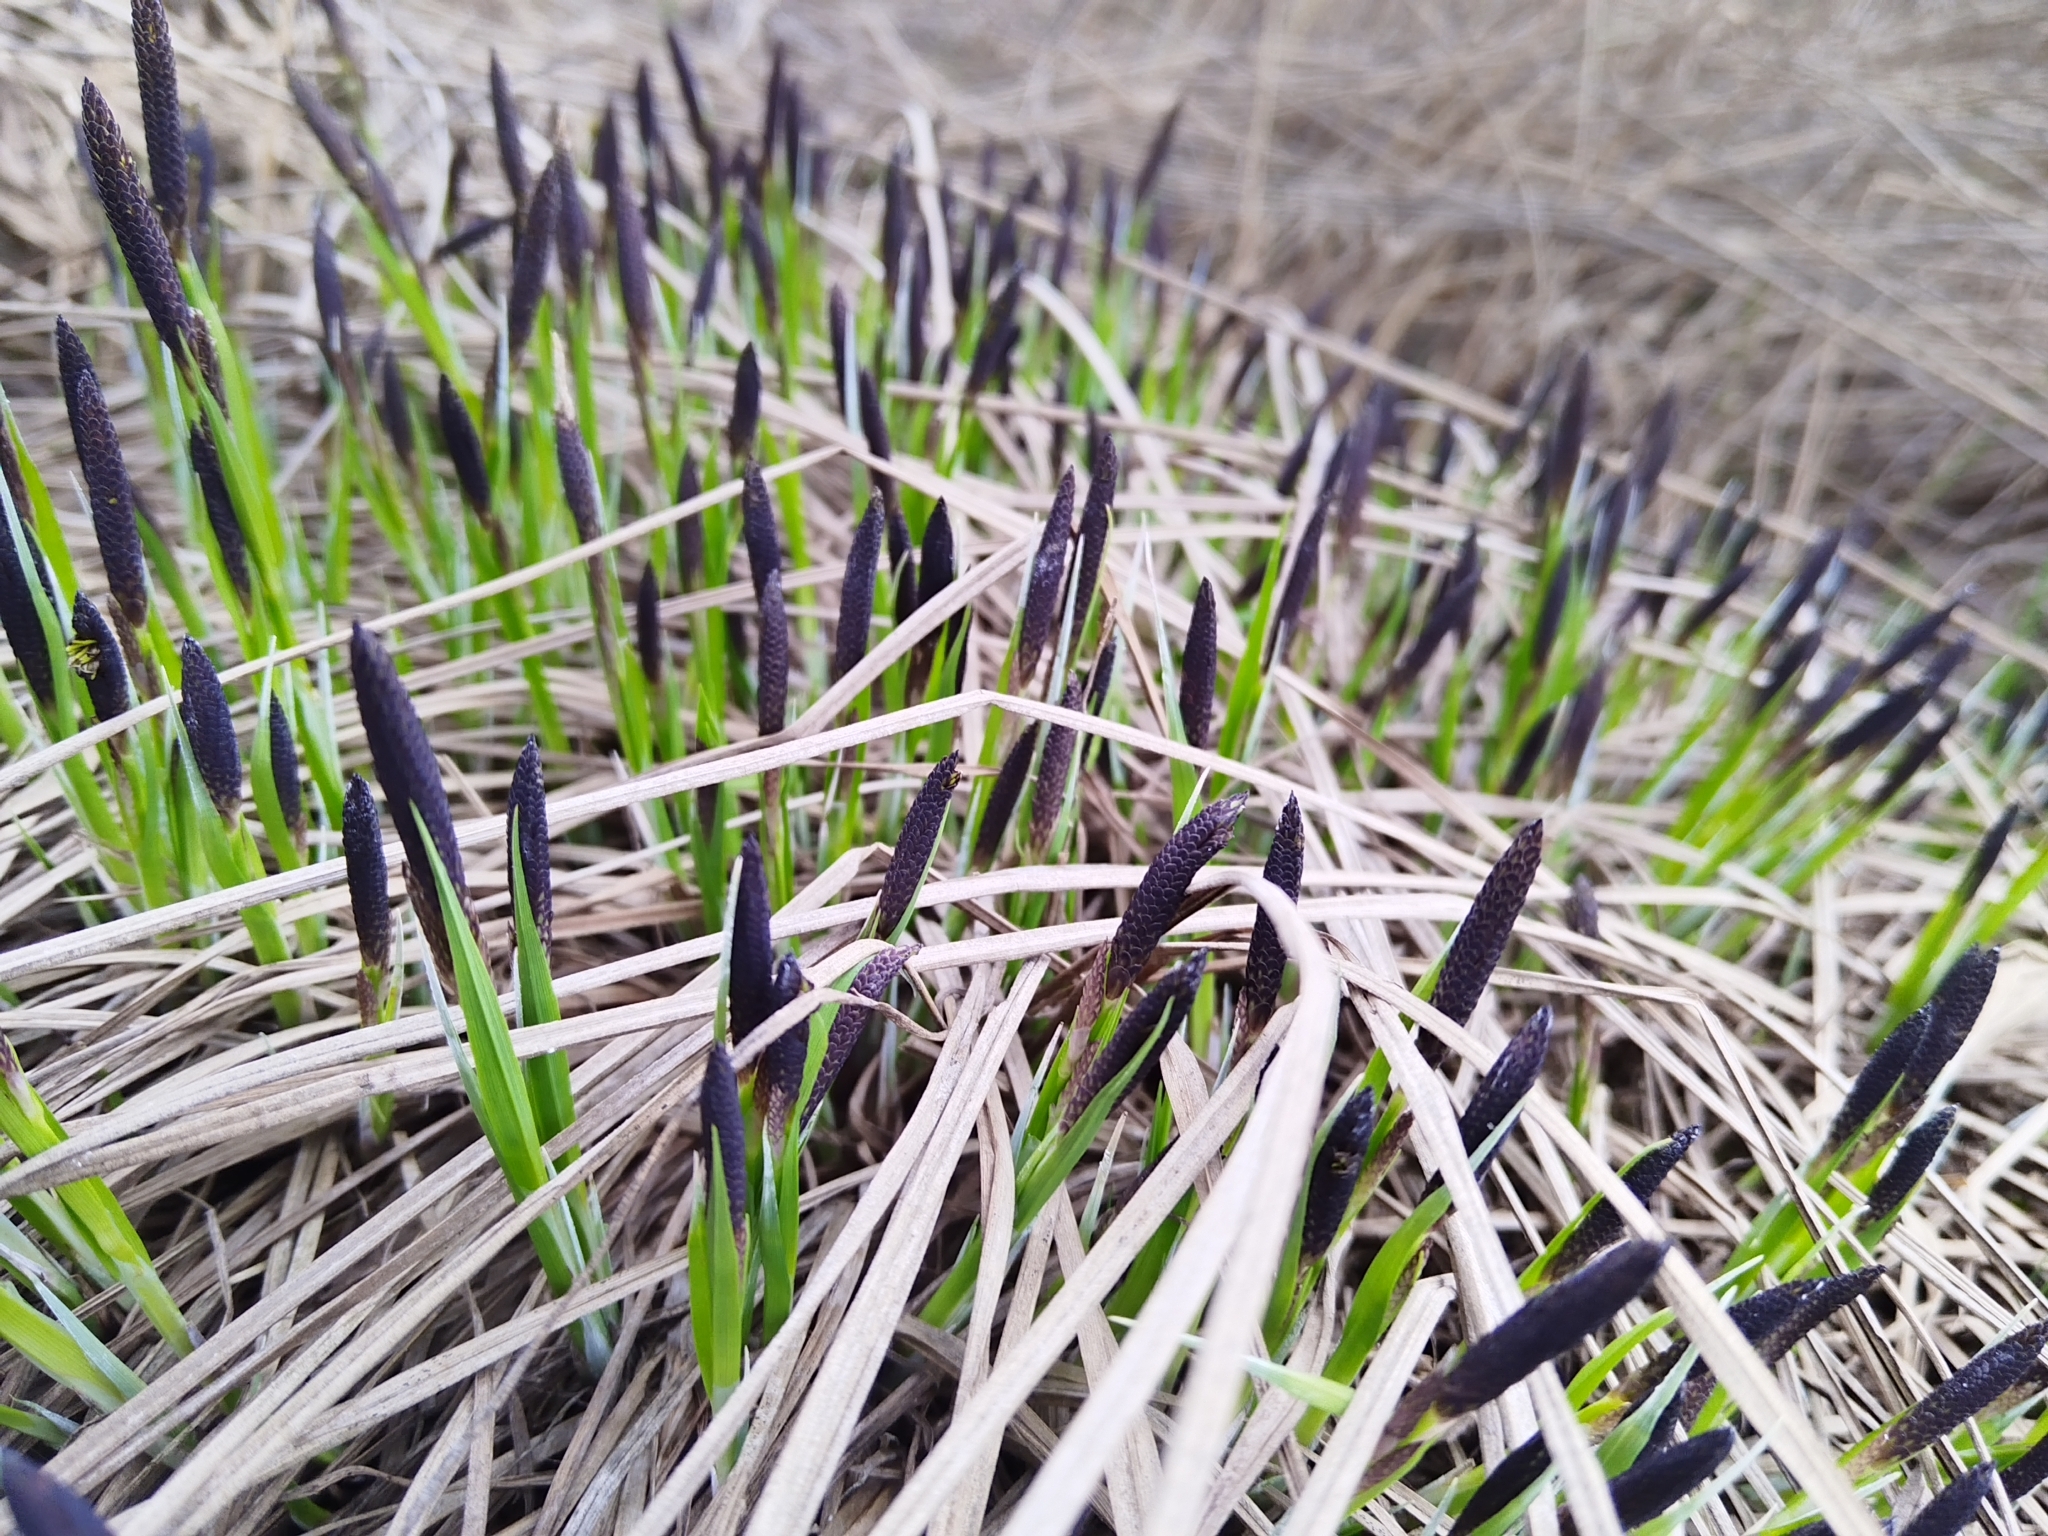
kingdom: Plantae
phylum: Tracheophyta
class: Liliopsida
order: Poales
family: Cyperaceae
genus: Carex
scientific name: Carex cespitosa
